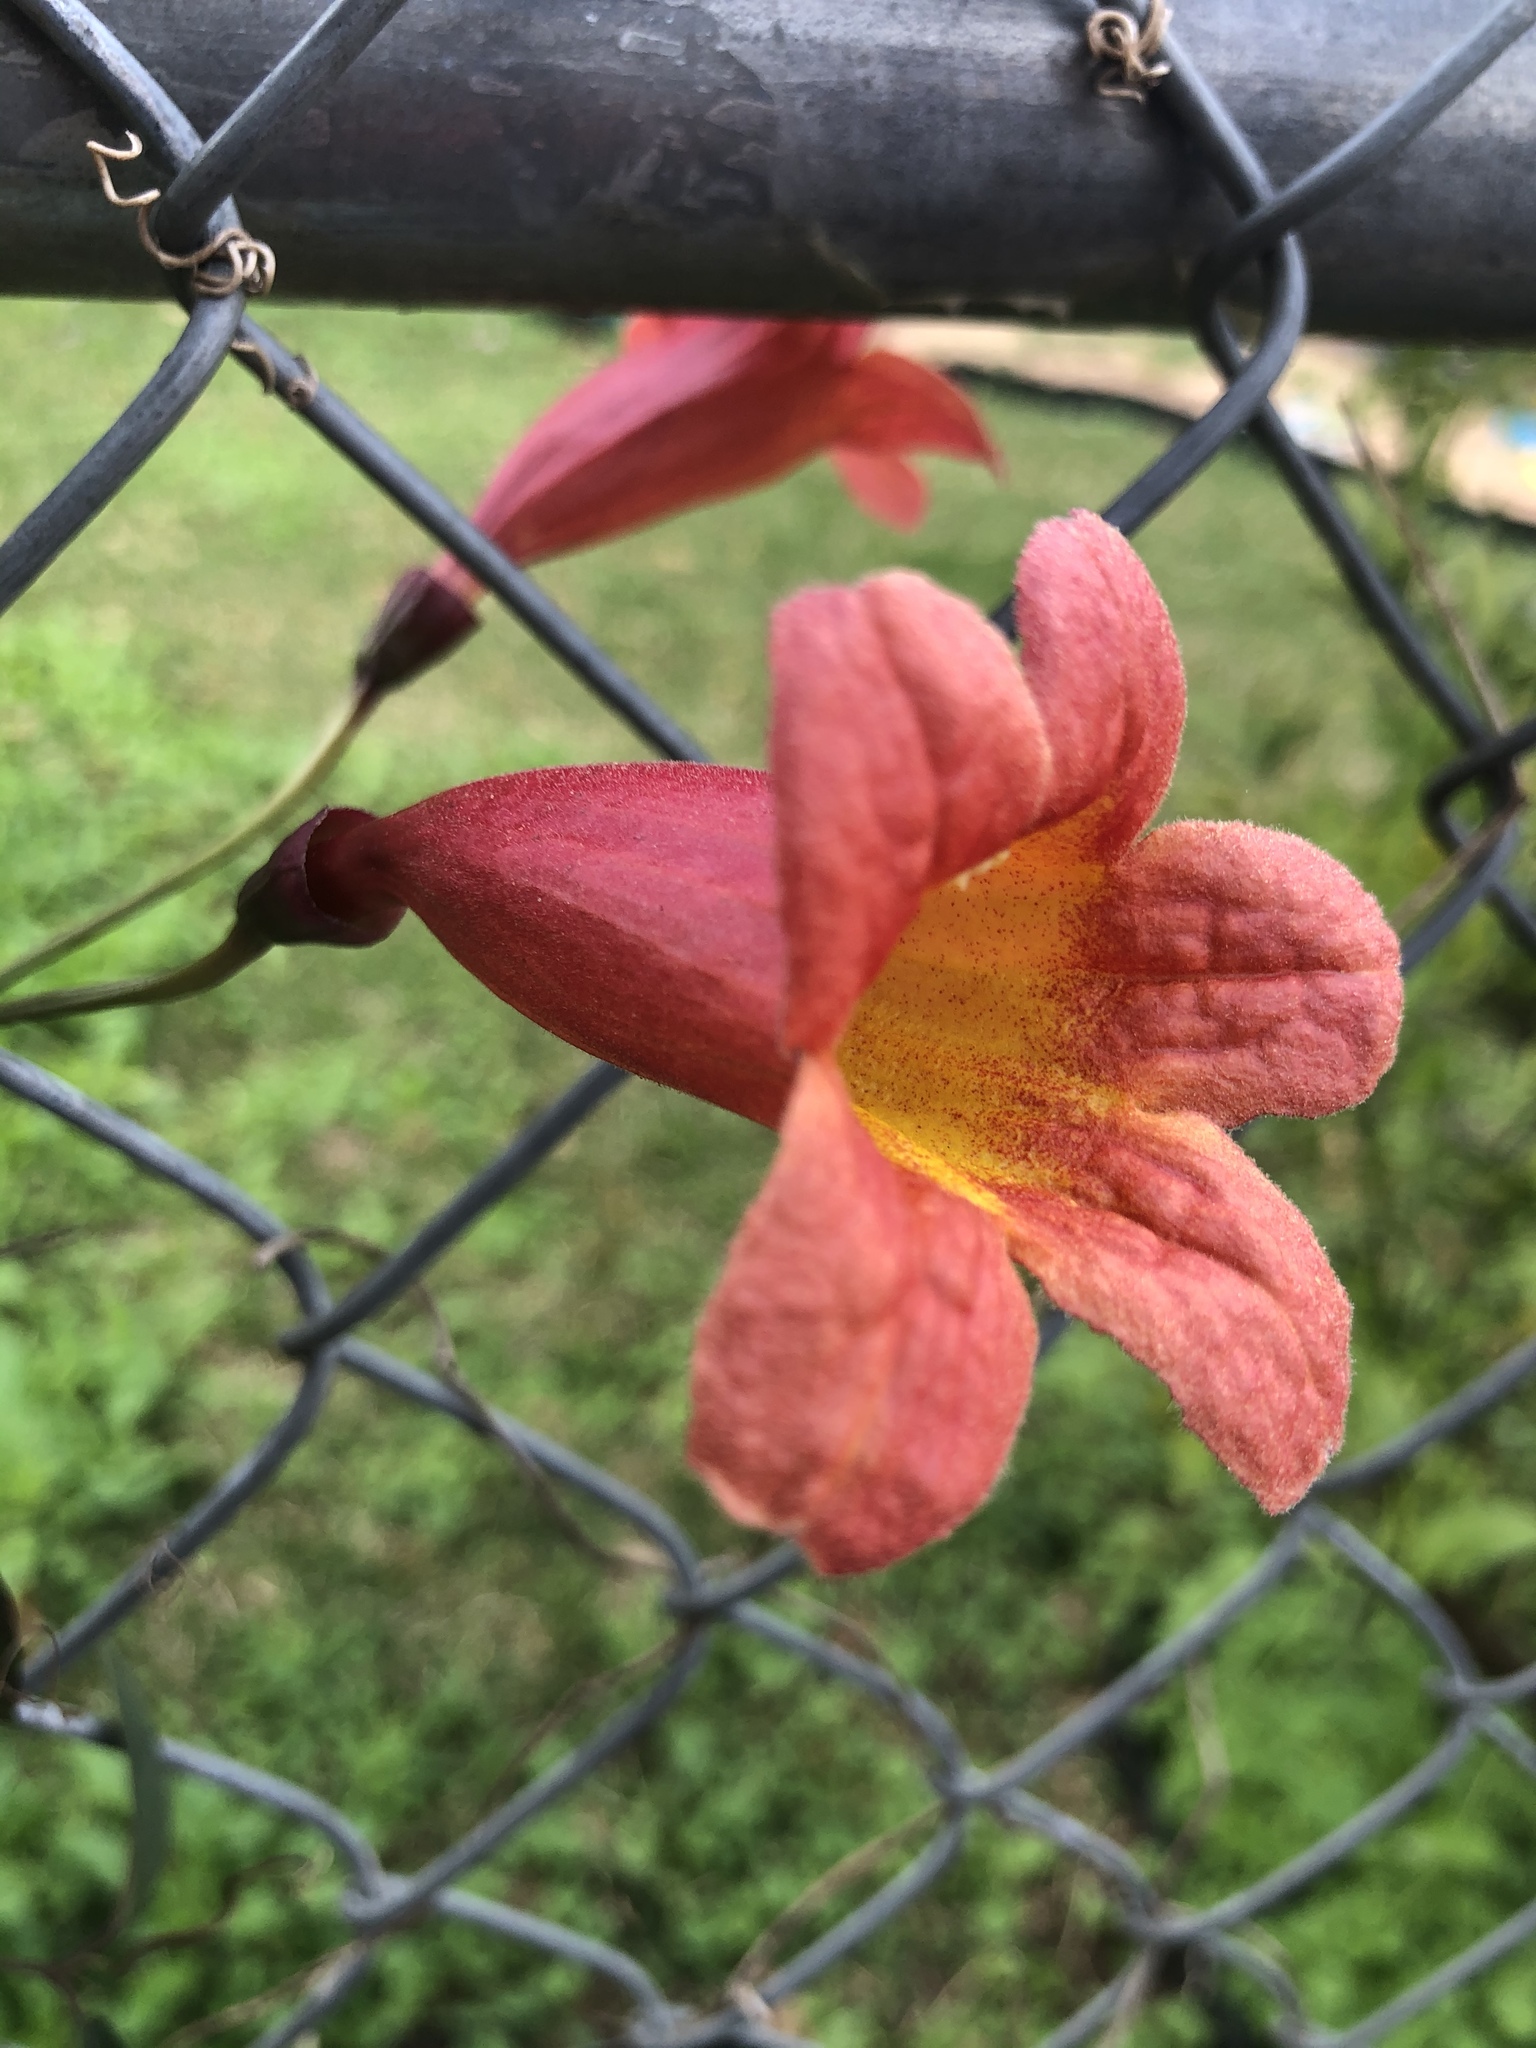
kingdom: Plantae
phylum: Tracheophyta
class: Magnoliopsida
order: Lamiales
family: Bignoniaceae
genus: Bignonia
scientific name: Bignonia capreolata
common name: Crossvine
